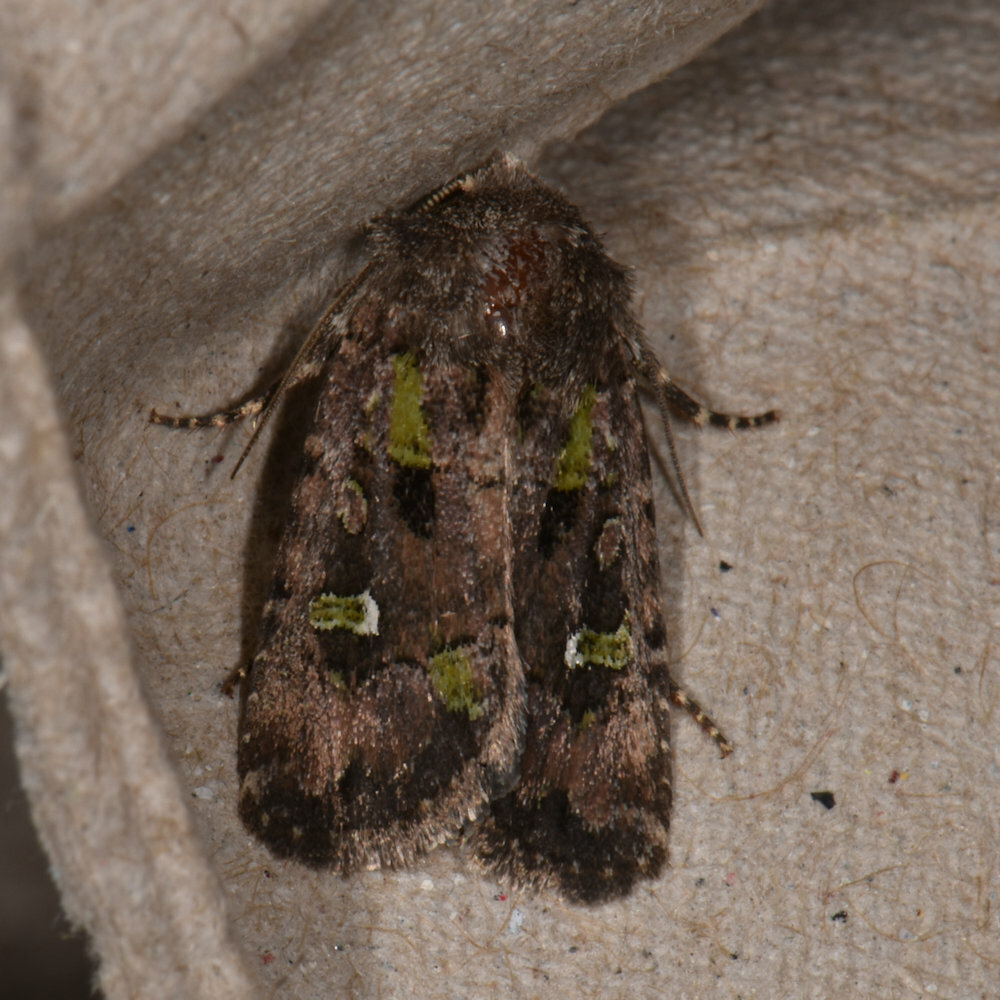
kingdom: Animalia
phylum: Arthropoda
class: Insecta
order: Lepidoptera
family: Noctuidae
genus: Lacinipolia
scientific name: Lacinipolia renigera
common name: Kidney-spotted minor
